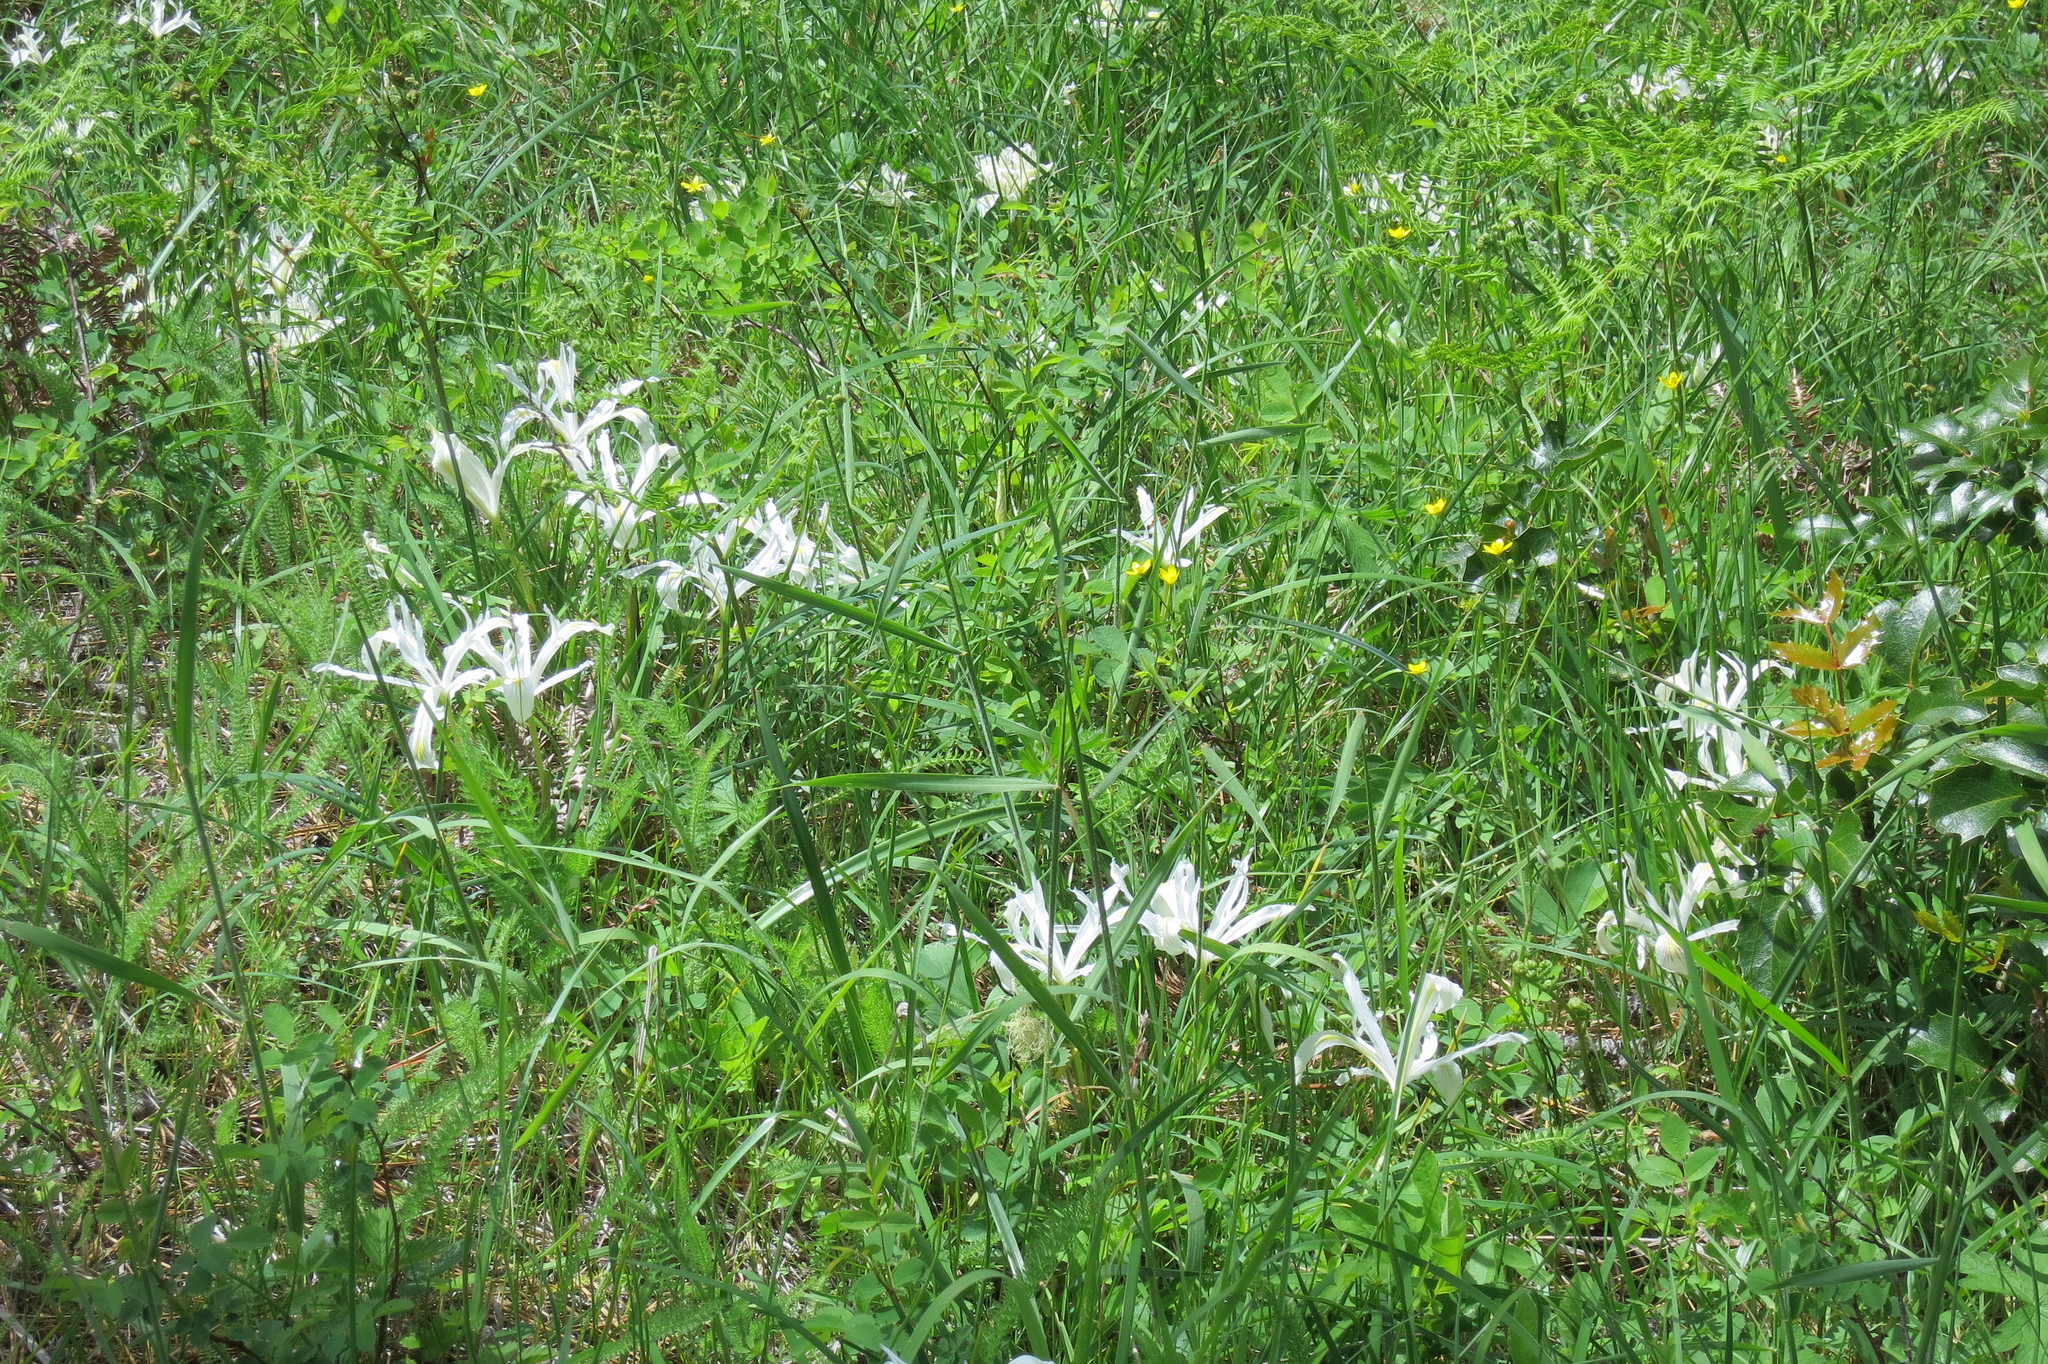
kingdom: Plantae
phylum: Tracheophyta
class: Liliopsida
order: Asparagales
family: Iridaceae
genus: Iris
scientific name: Iris chrysophylla
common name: Yellow-leaf iris
